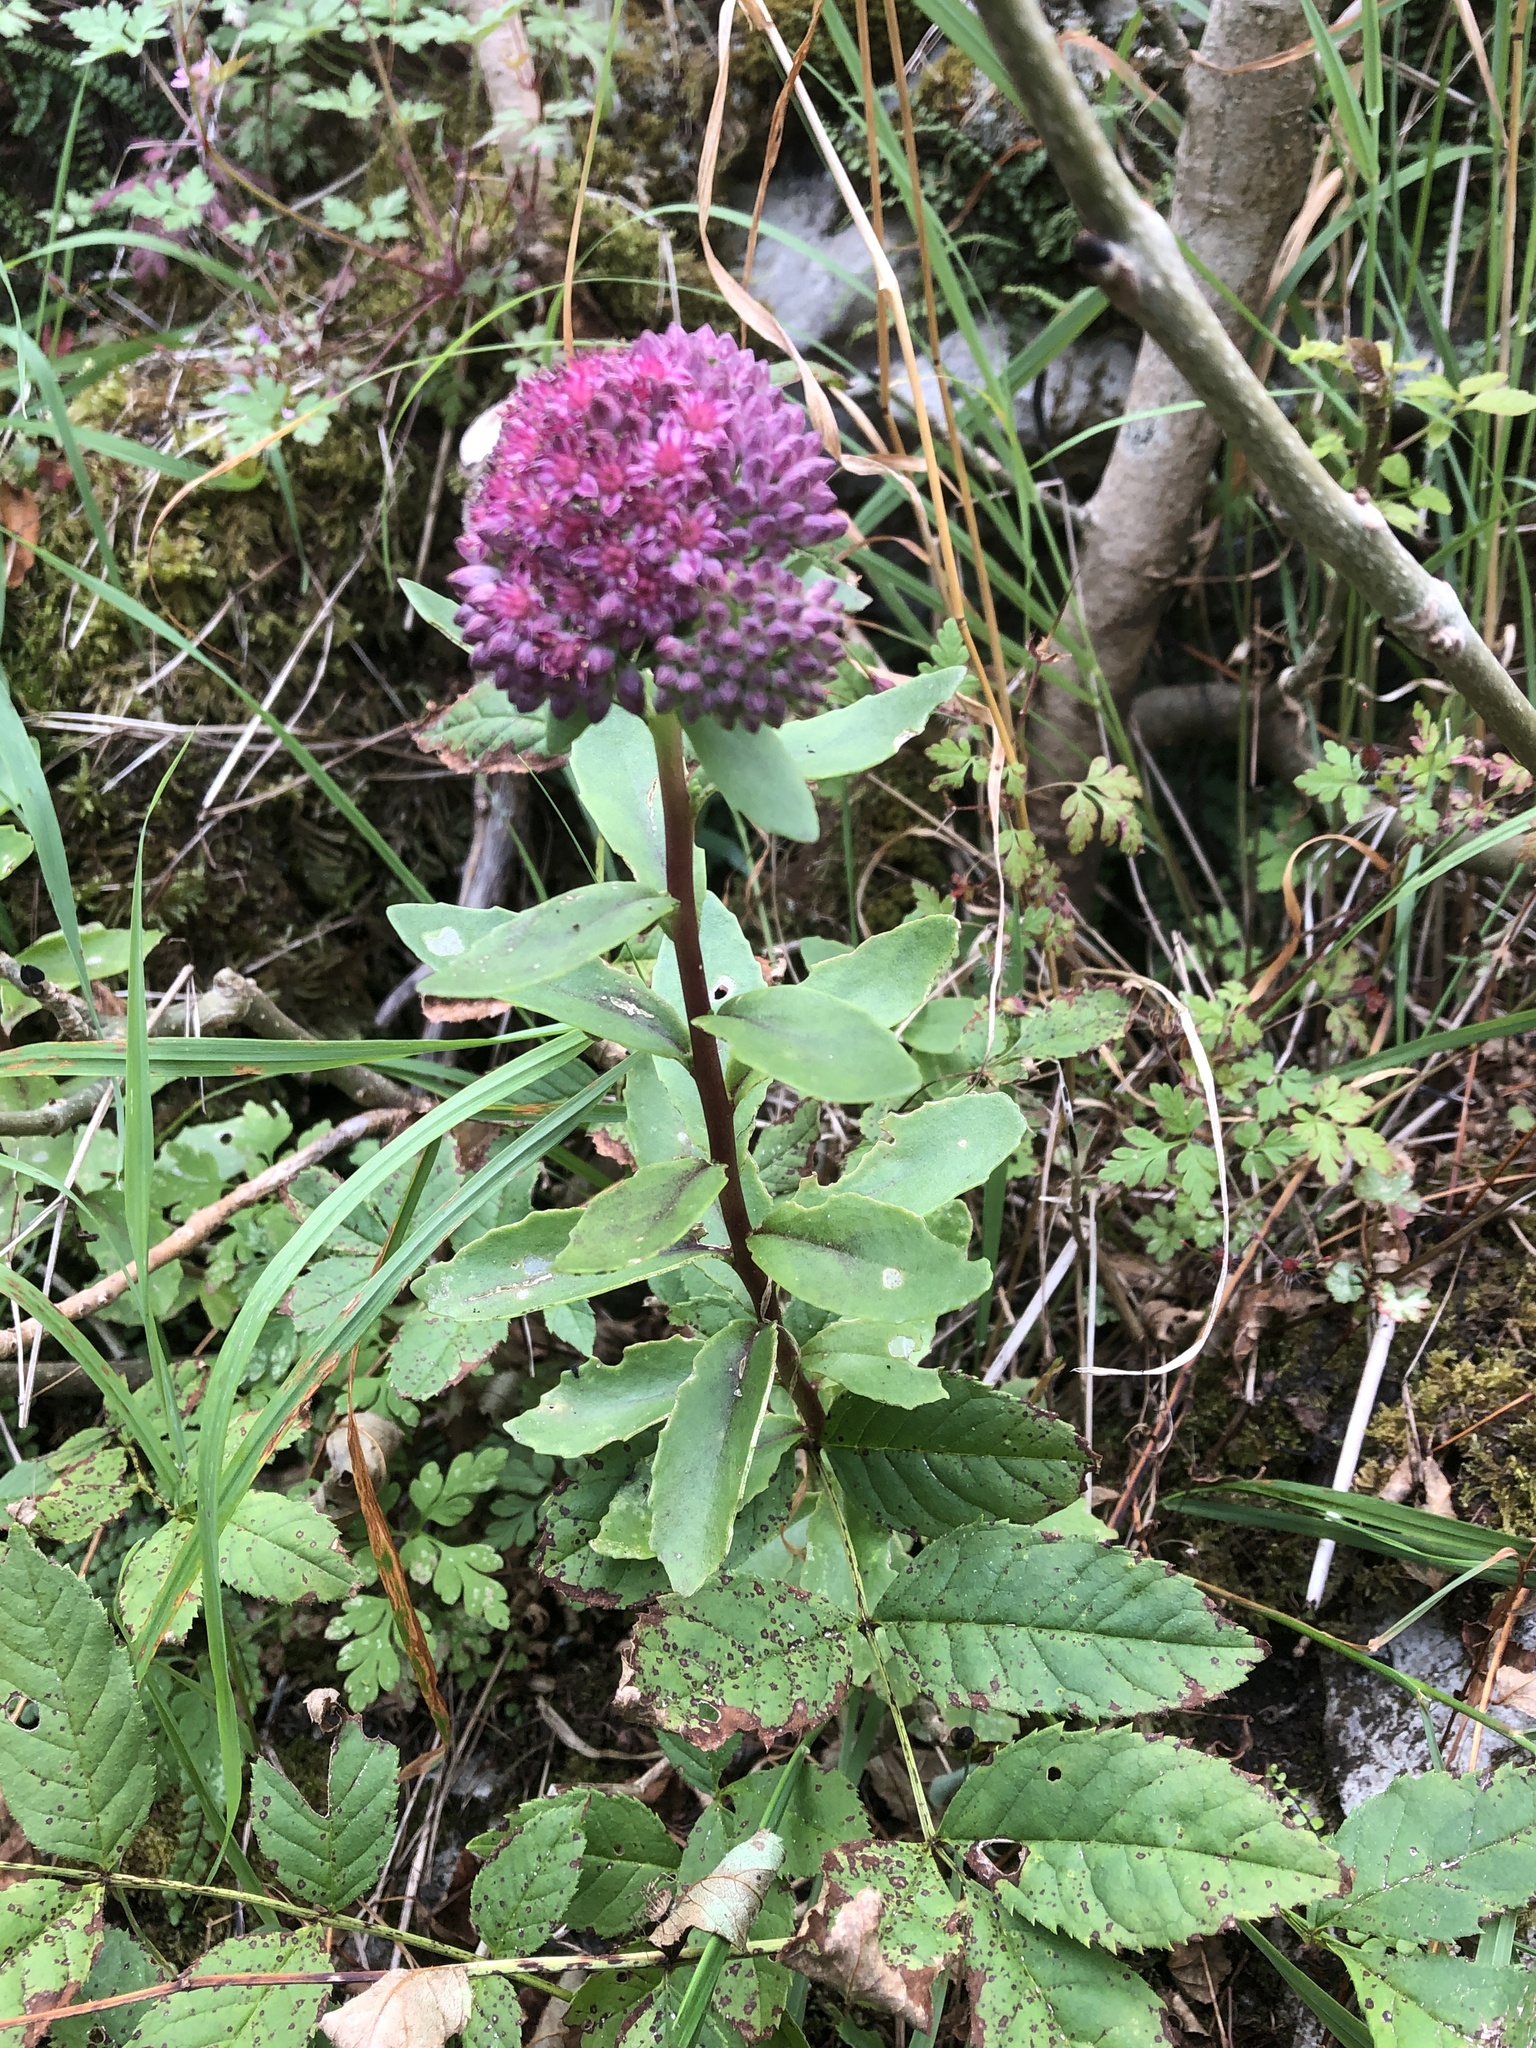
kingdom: Plantae
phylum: Tracheophyta
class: Magnoliopsida
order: Saxifragales
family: Crassulaceae
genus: Hylotelephium
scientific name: Hylotelephium telephium
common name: Live-forever
